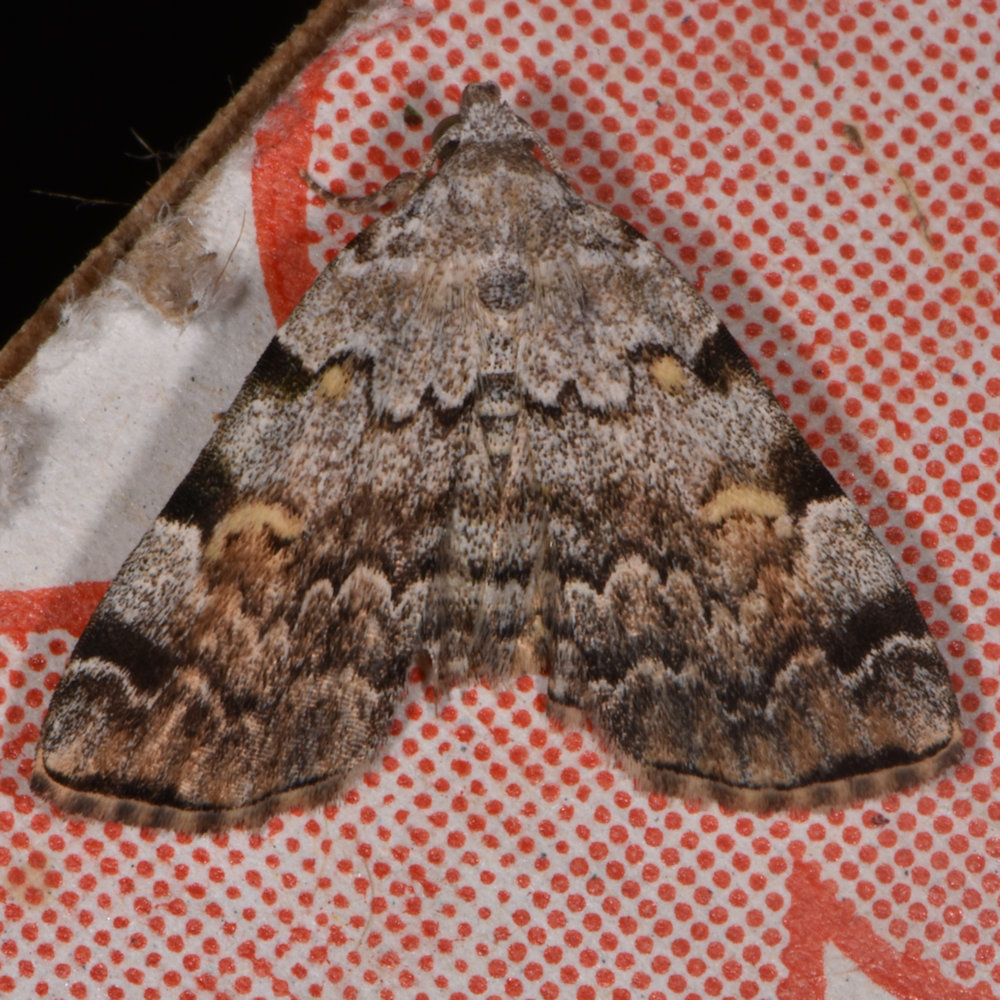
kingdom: Animalia
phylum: Arthropoda
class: Insecta
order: Lepidoptera
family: Erebidae
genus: Idia
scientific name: Idia americalis
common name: American idia moth
